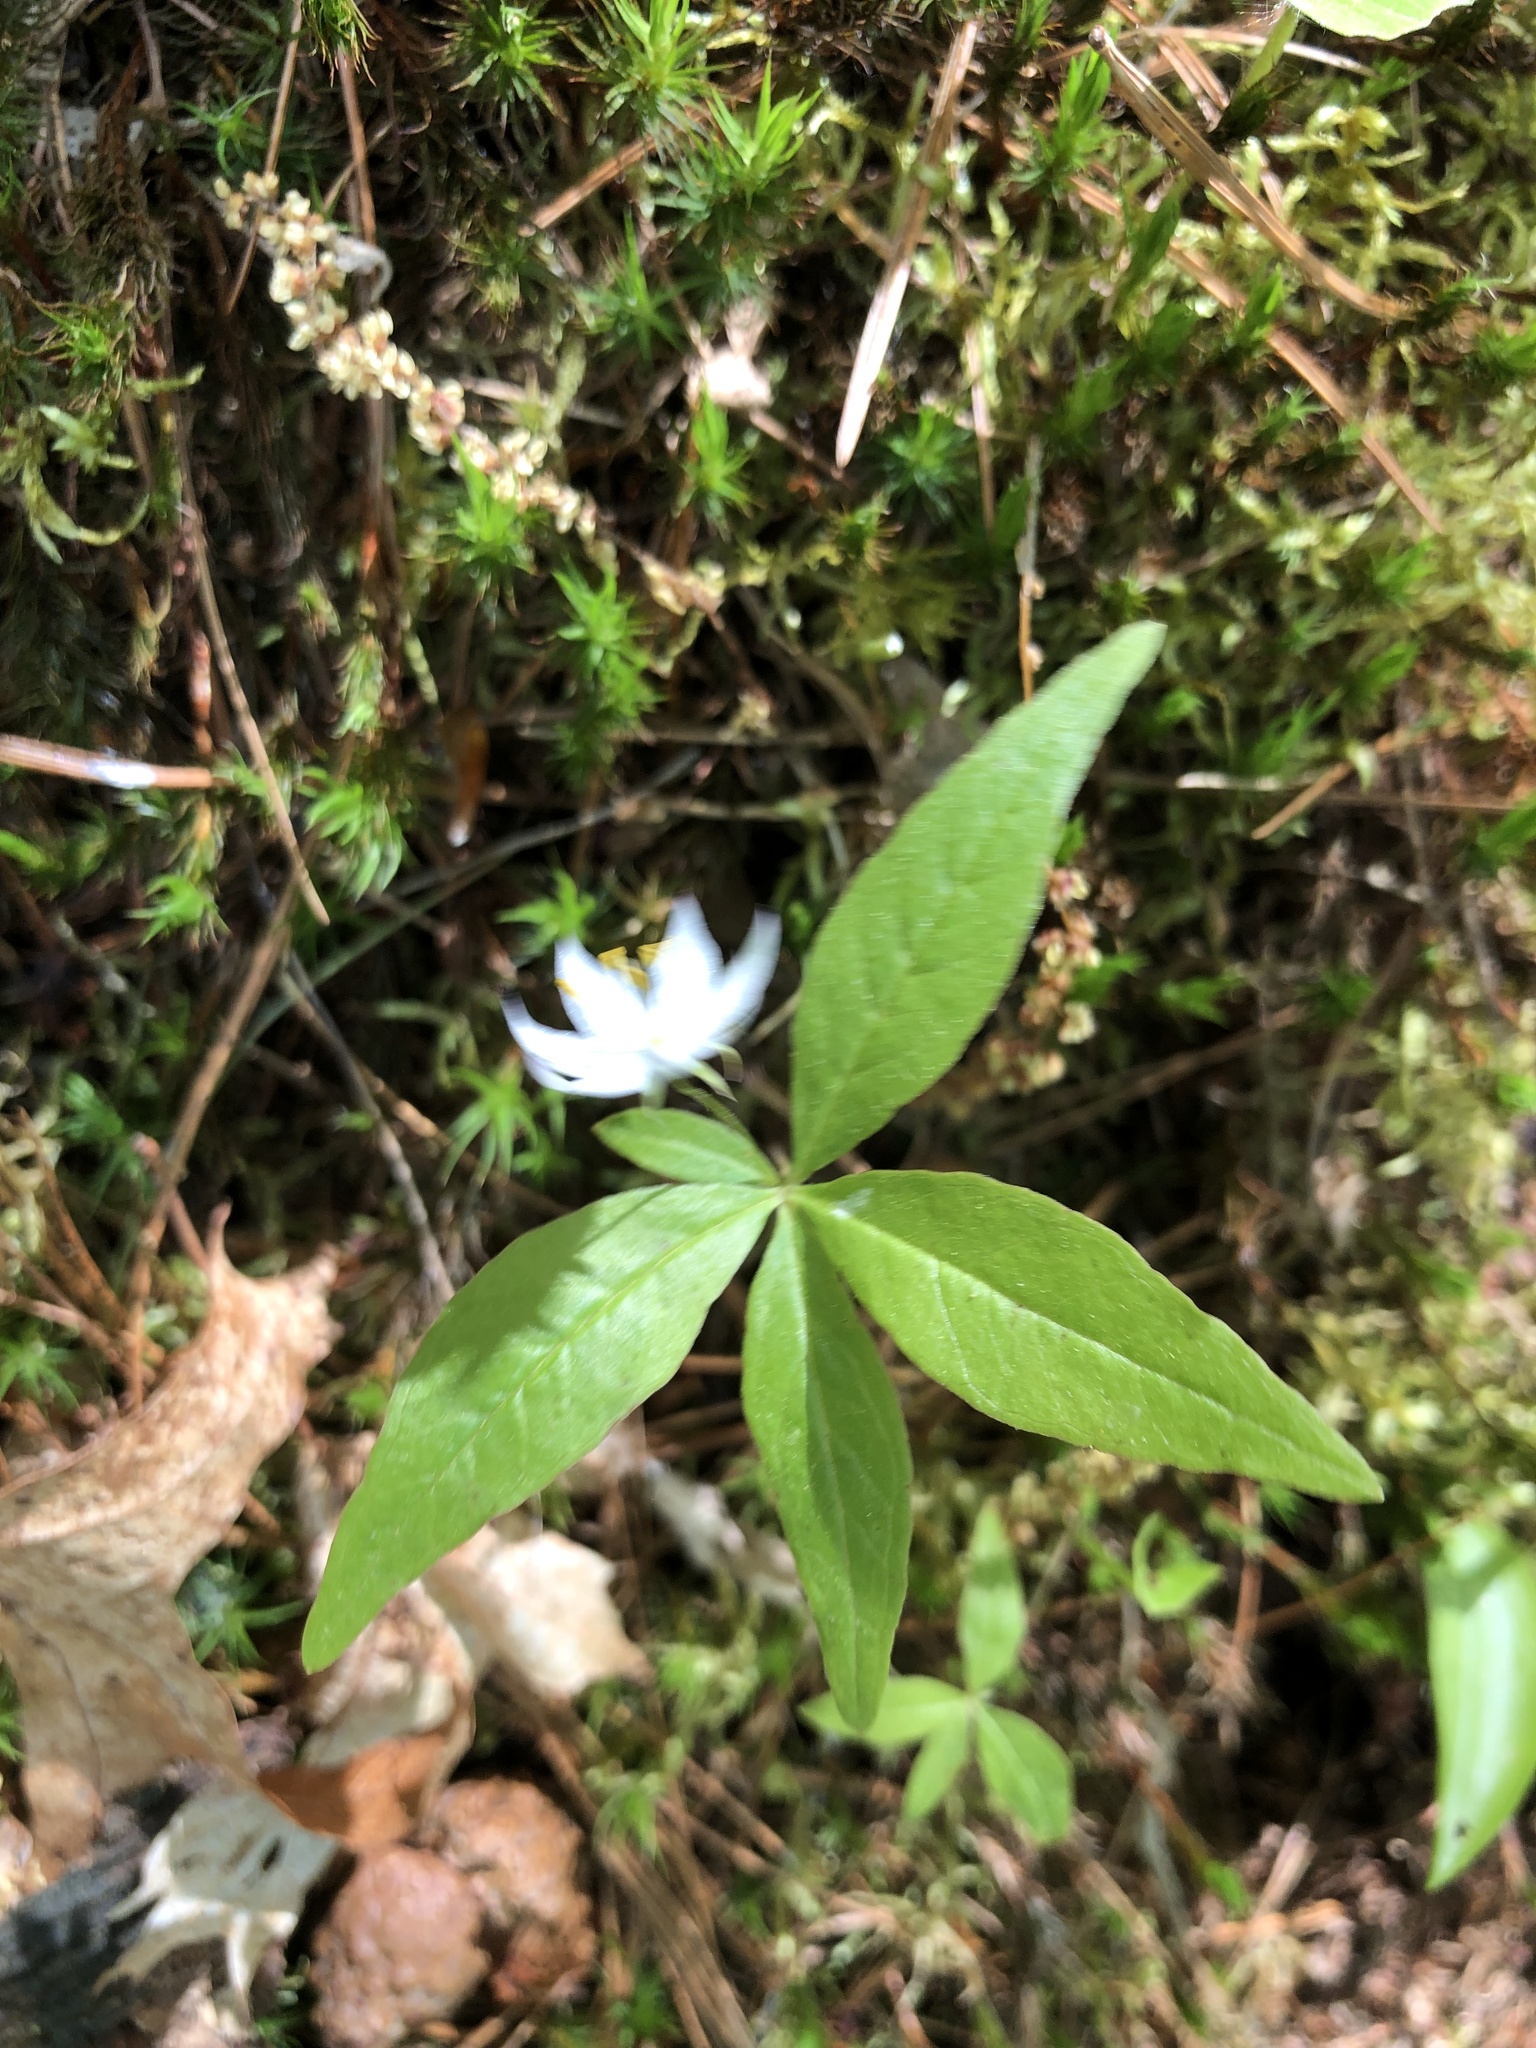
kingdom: Plantae
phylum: Tracheophyta
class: Magnoliopsida
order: Ericales
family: Primulaceae
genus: Lysimachia
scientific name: Lysimachia borealis
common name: American starflower
